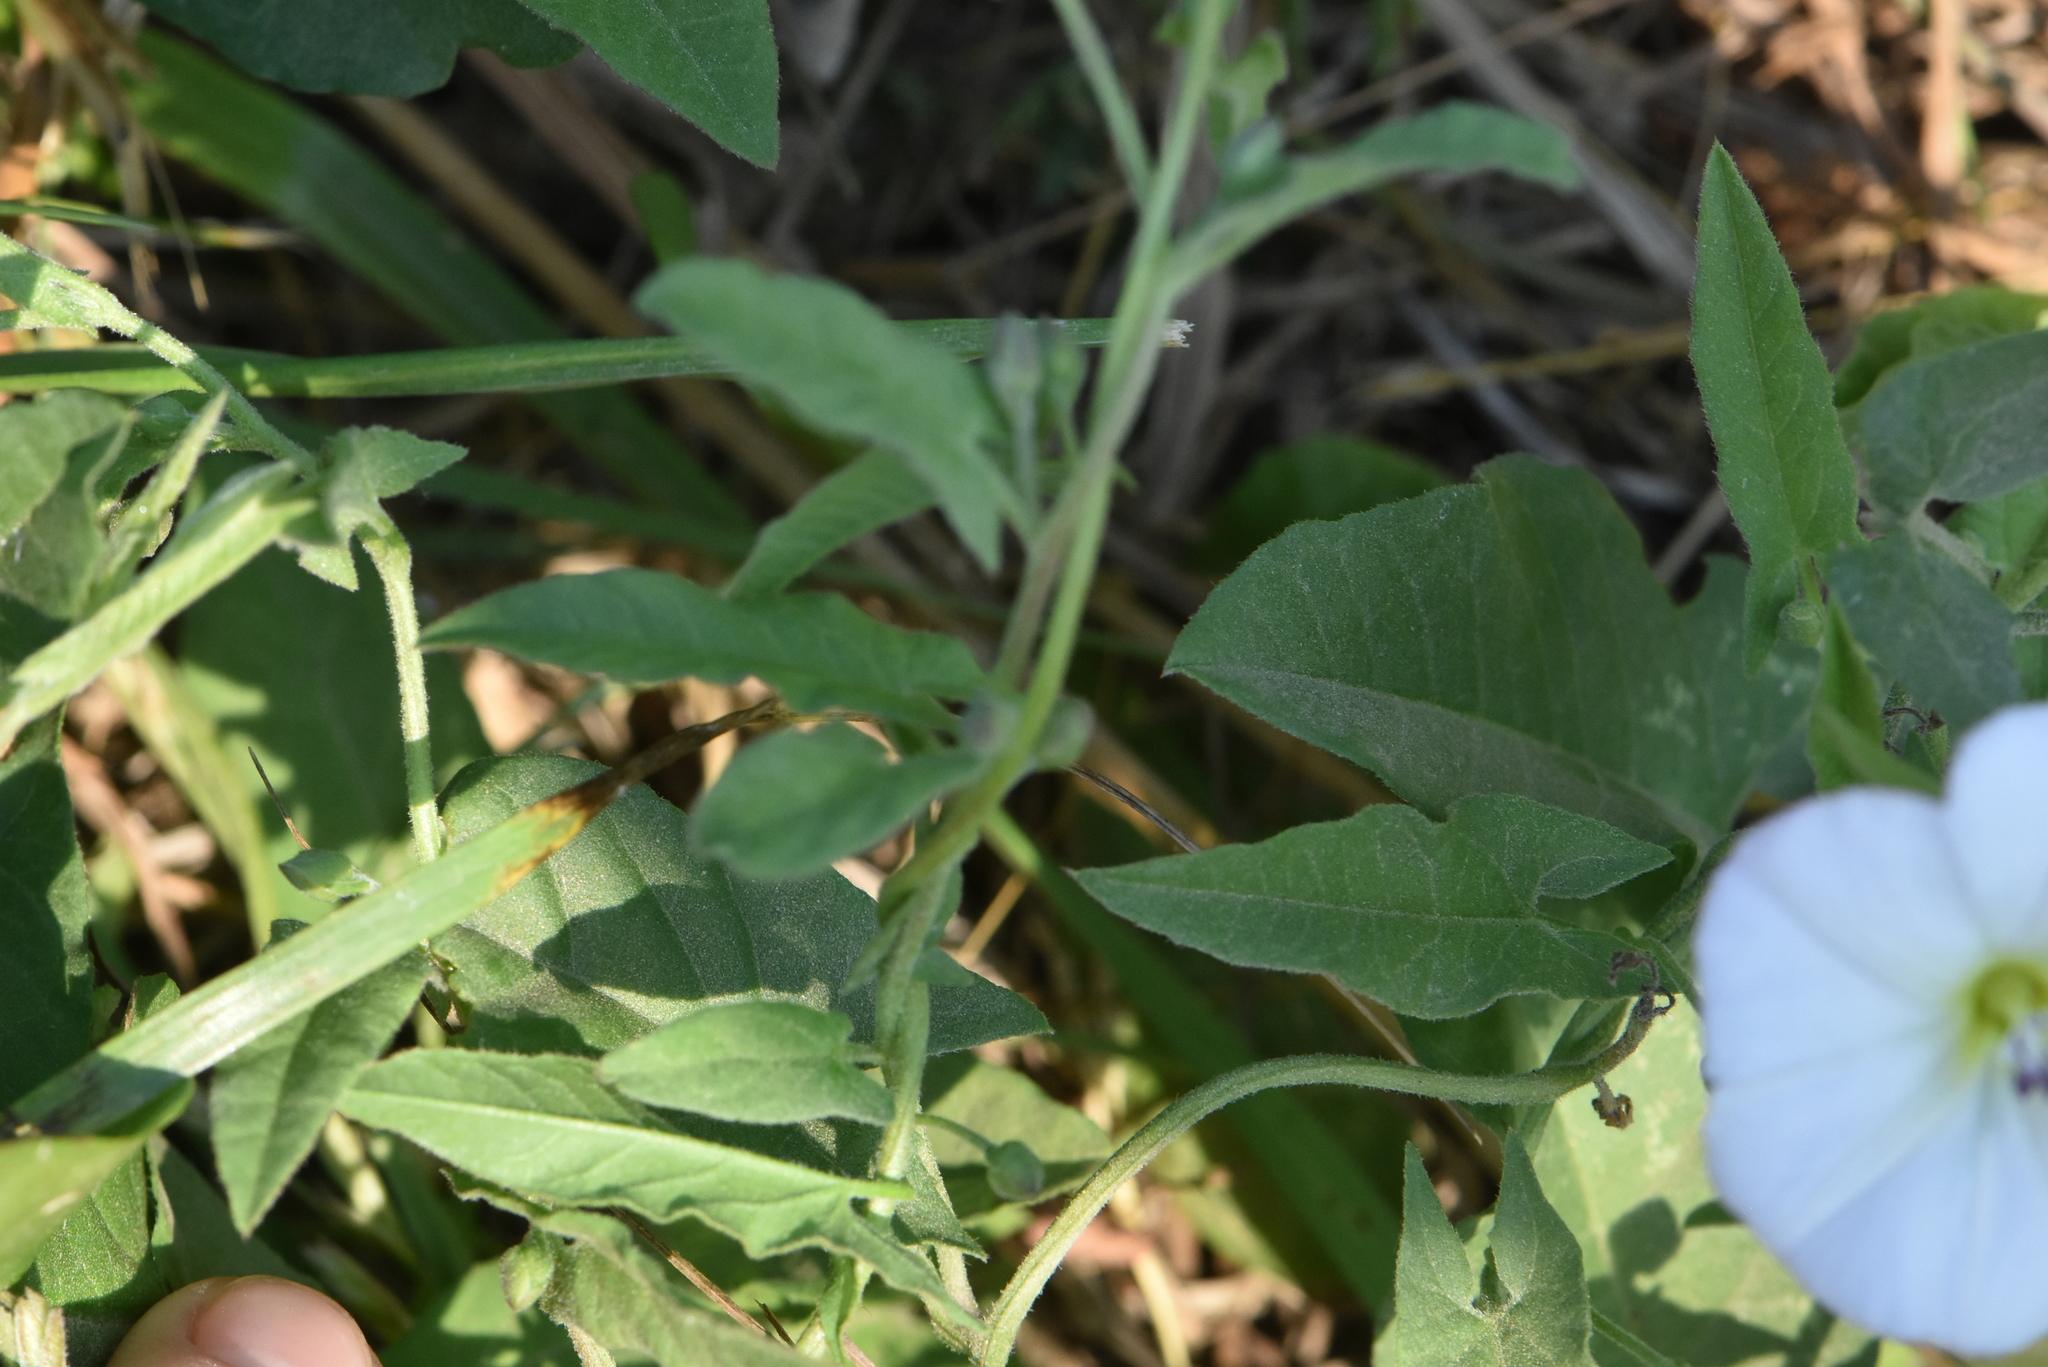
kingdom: Plantae
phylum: Tracheophyta
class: Magnoliopsida
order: Solanales
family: Convolvulaceae
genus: Convolvulus
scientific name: Convolvulus arvensis
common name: Field bindweed
